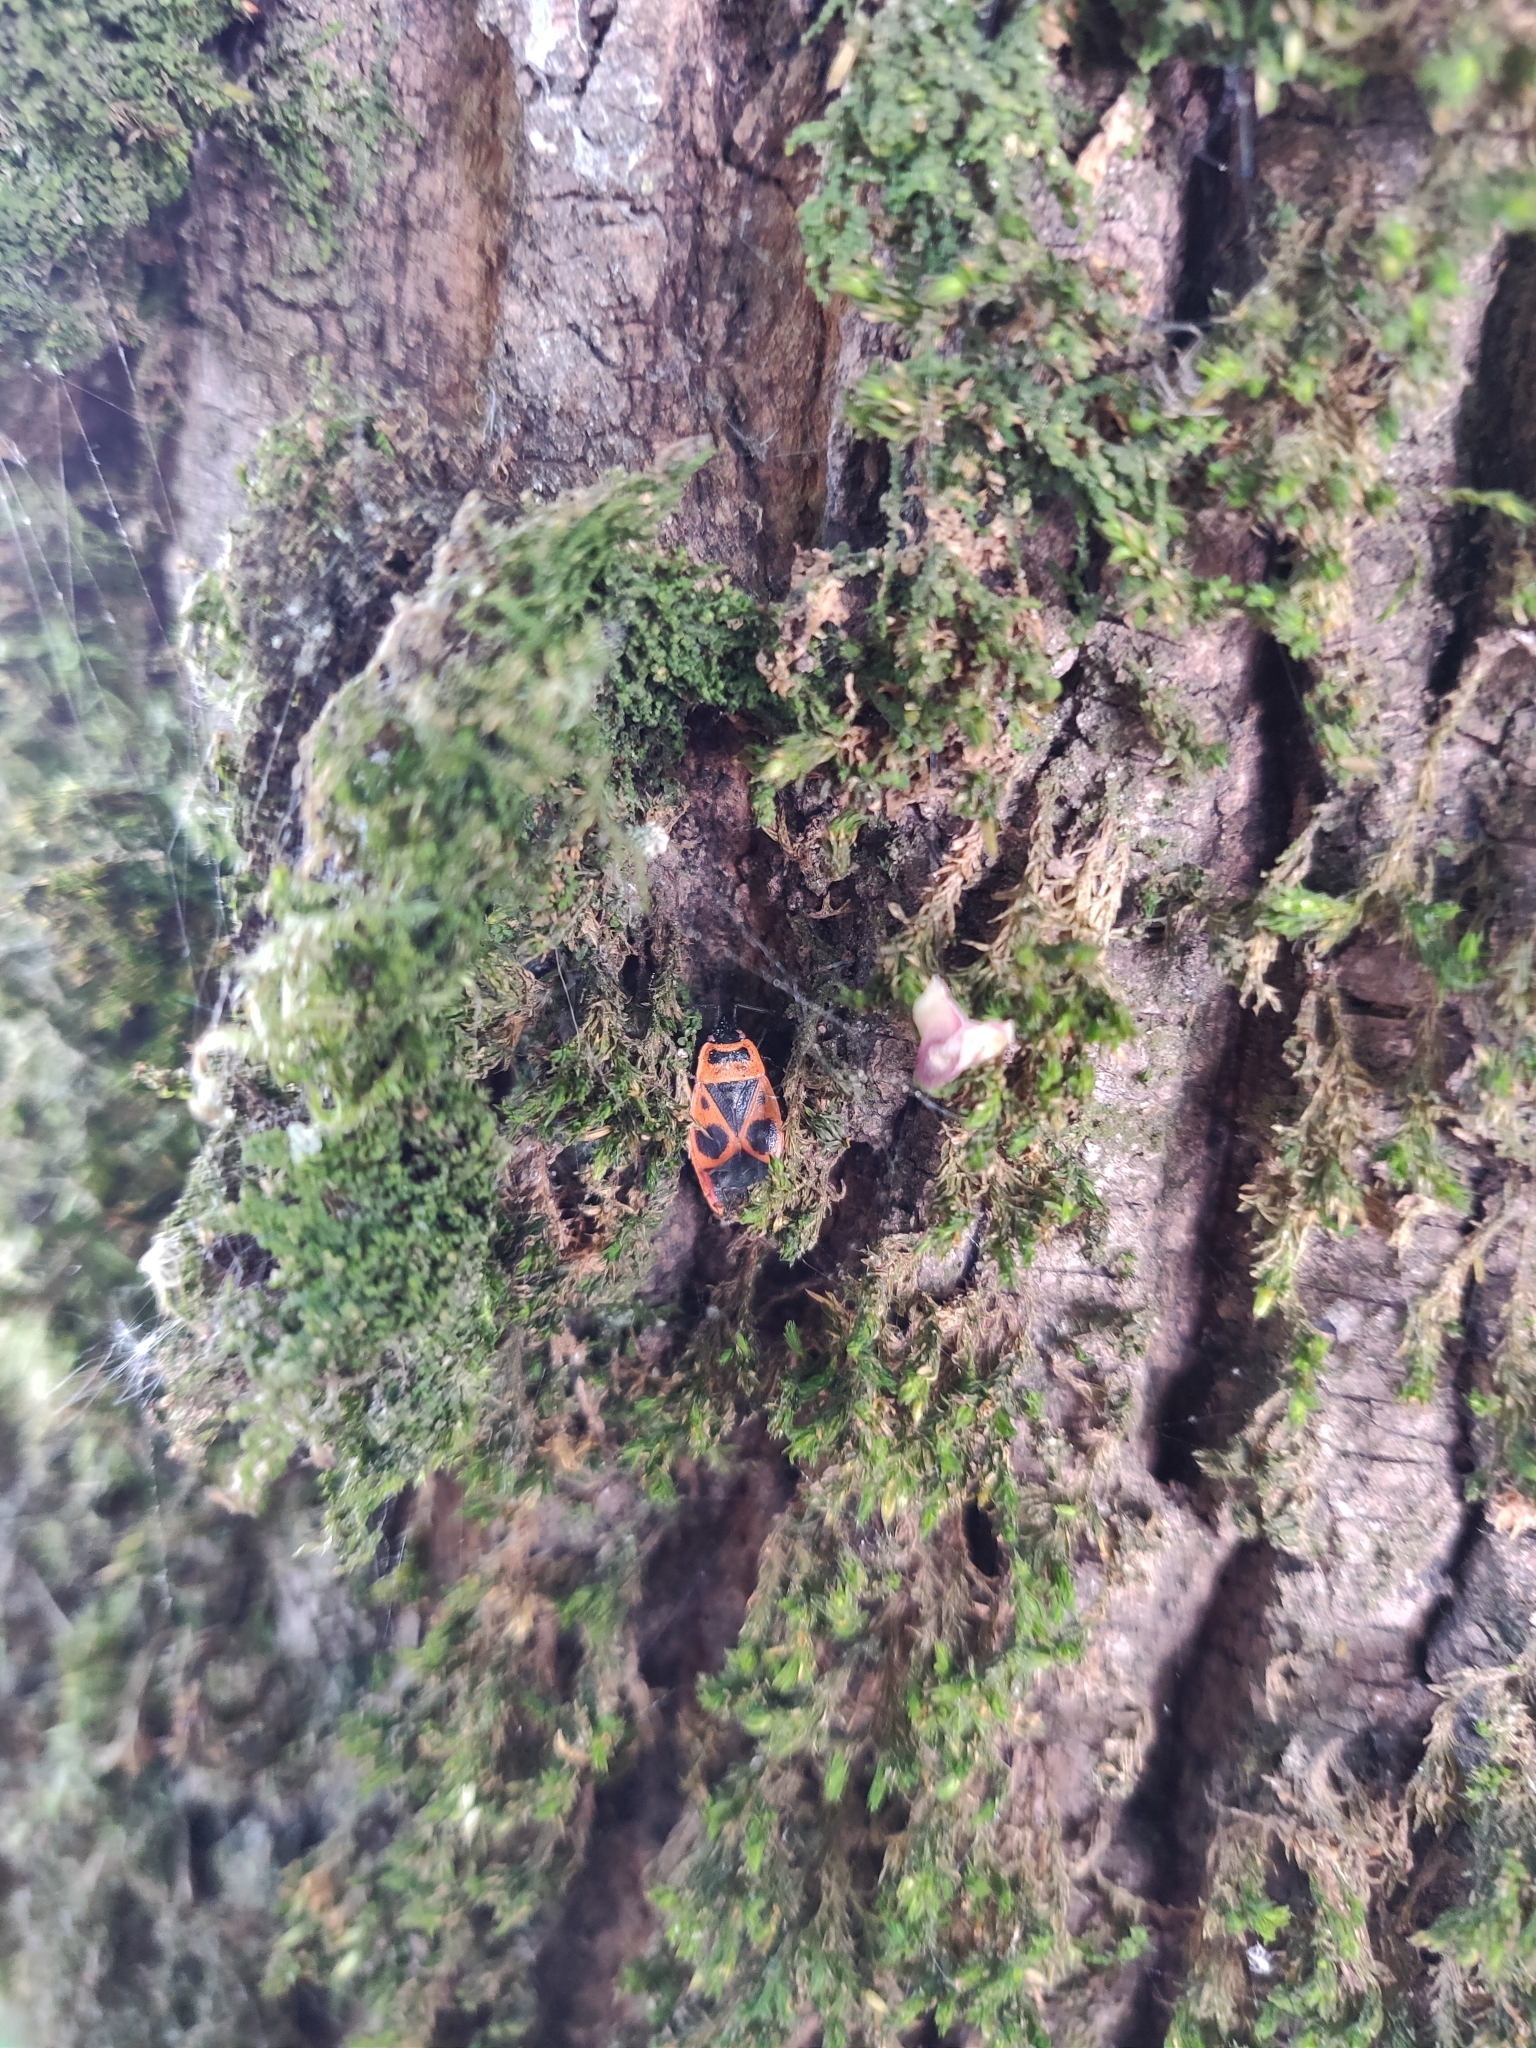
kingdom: Animalia
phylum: Arthropoda
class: Insecta
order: Hemiptera
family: Pyrrhocoridae
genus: Pyrrhocoris
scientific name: Pyrrhocoris apterus
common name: Firebug
